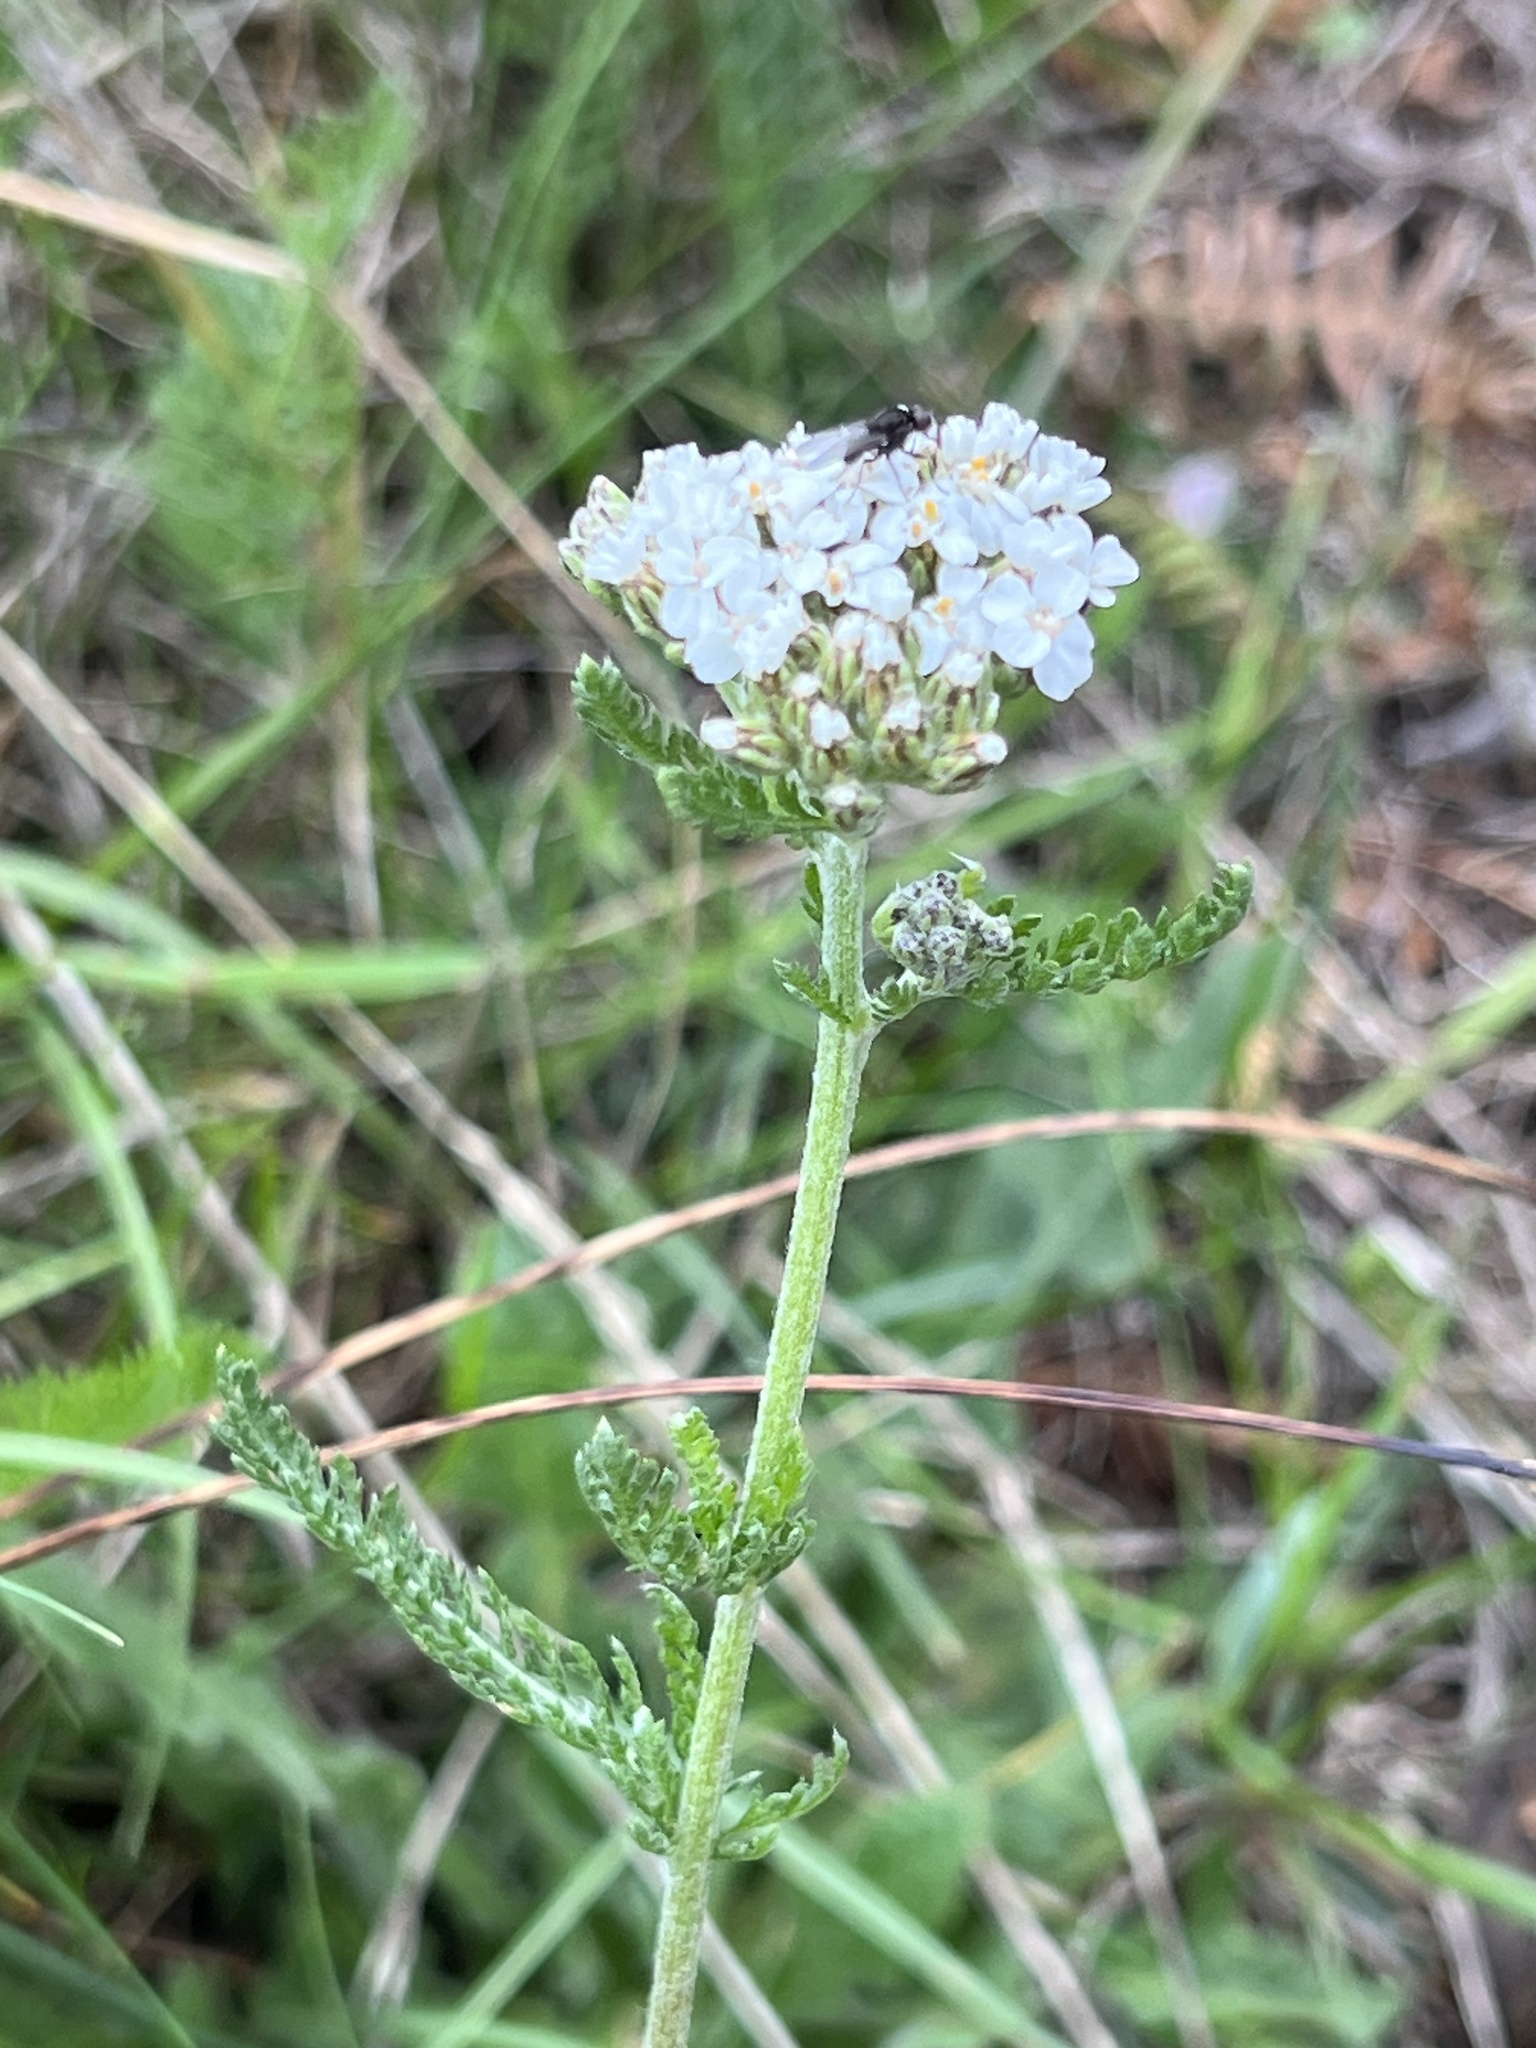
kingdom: Plantae
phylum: Tracheophyta
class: Magnoliopsida
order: Asterales
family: Asteraceae
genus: Achillea
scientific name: Achillea millefolium
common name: Yarrow
